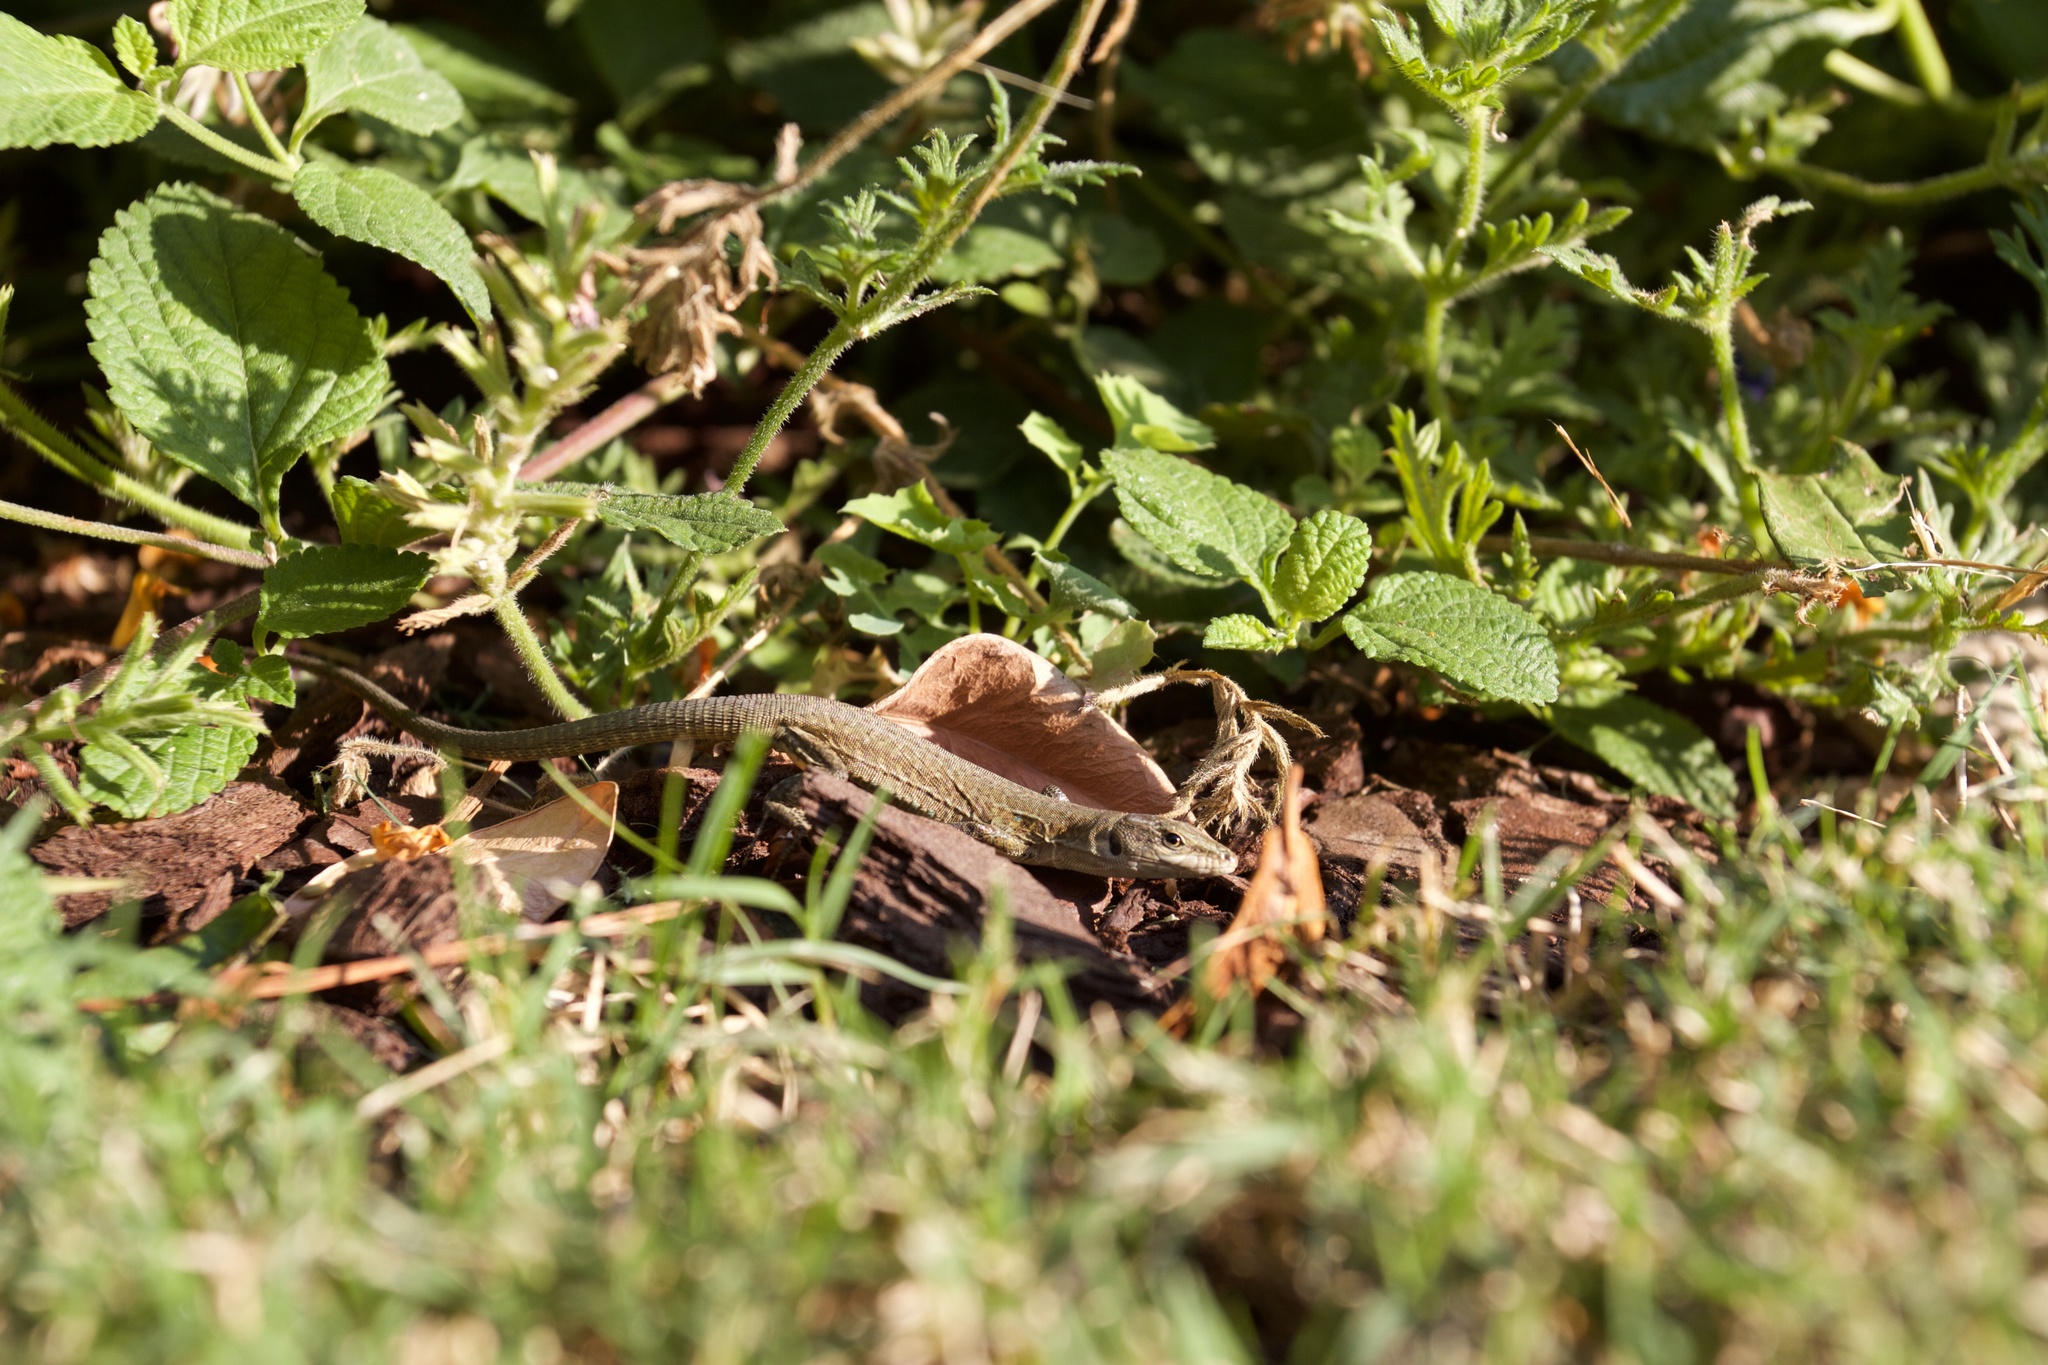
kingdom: Animalia
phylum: Chordata
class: Squamata
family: Lacertidae
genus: Podarcis
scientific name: Podarcis siculus
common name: Italian wall lizard
